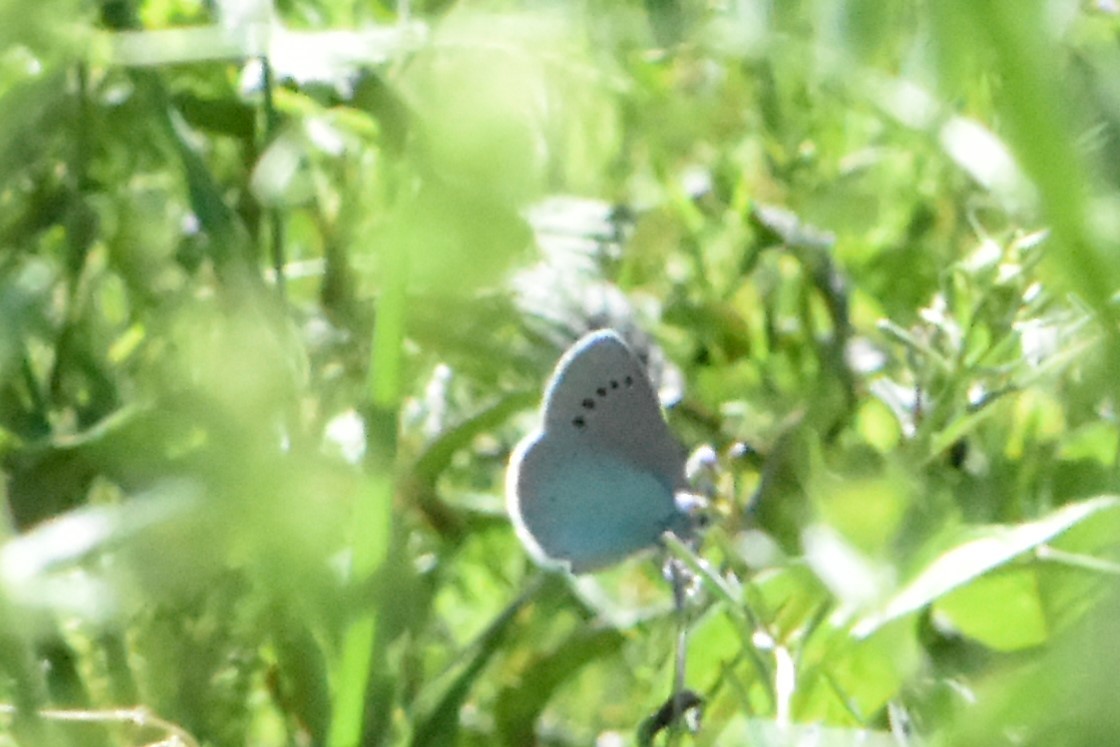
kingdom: Animalia
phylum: Arthropoda
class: Insecta
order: Lepidoptera
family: Lycaenidae
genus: Glaucopsyche
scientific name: Glaucopsyche alexis
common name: Green-underside blue
